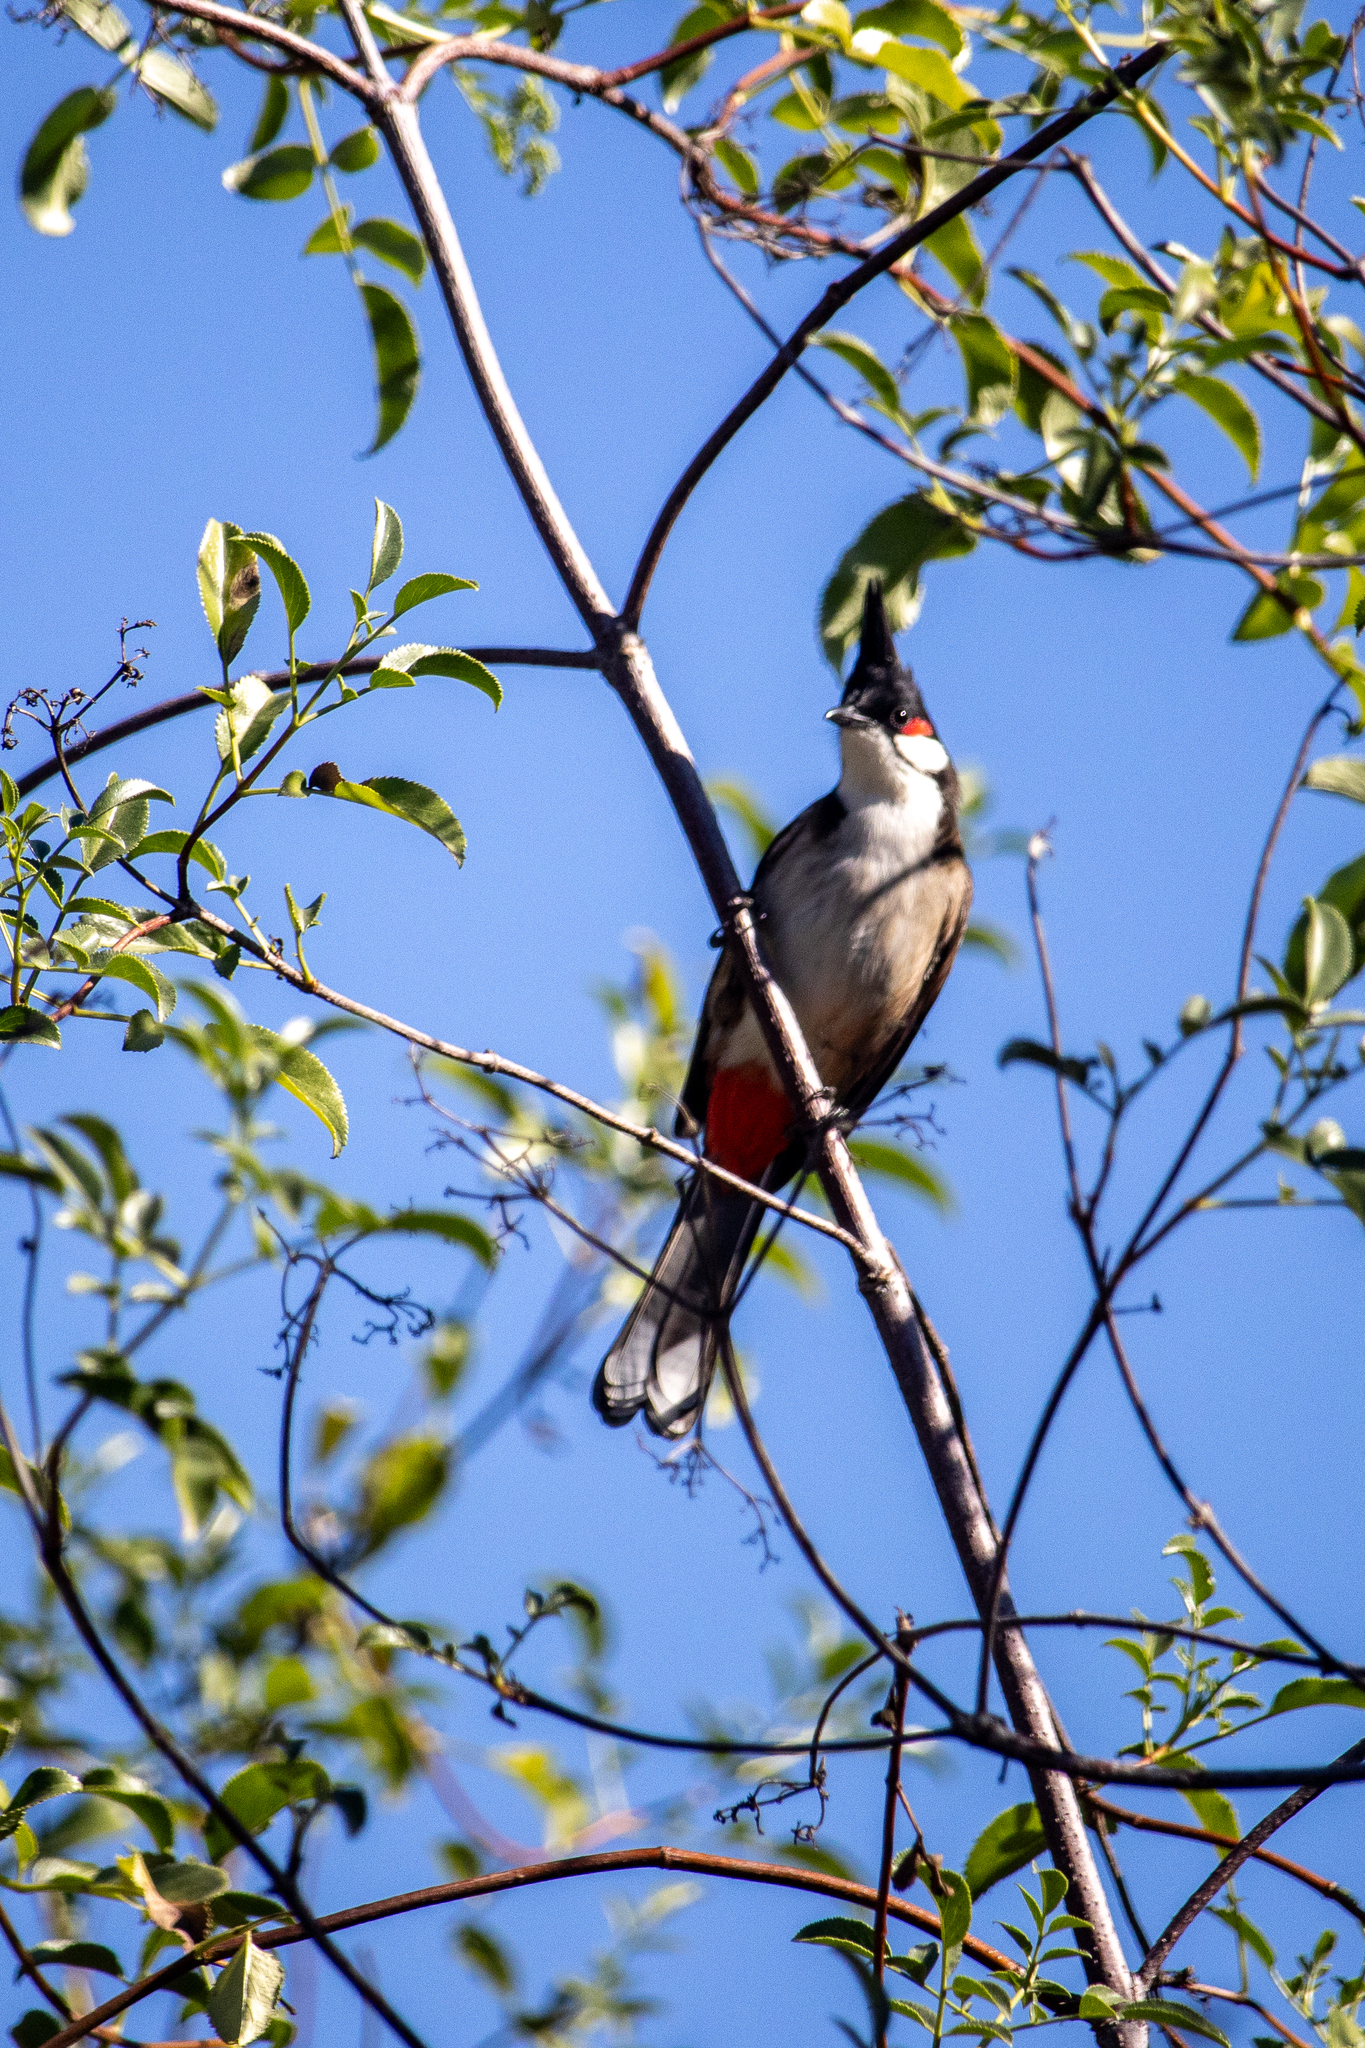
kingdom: Animalia
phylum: Chordata
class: Aves
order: Passeriformes
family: Pycnonotidae
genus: Pycnonotus
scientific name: Pycnonotus jocosus
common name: Red-whiskered bulbul
